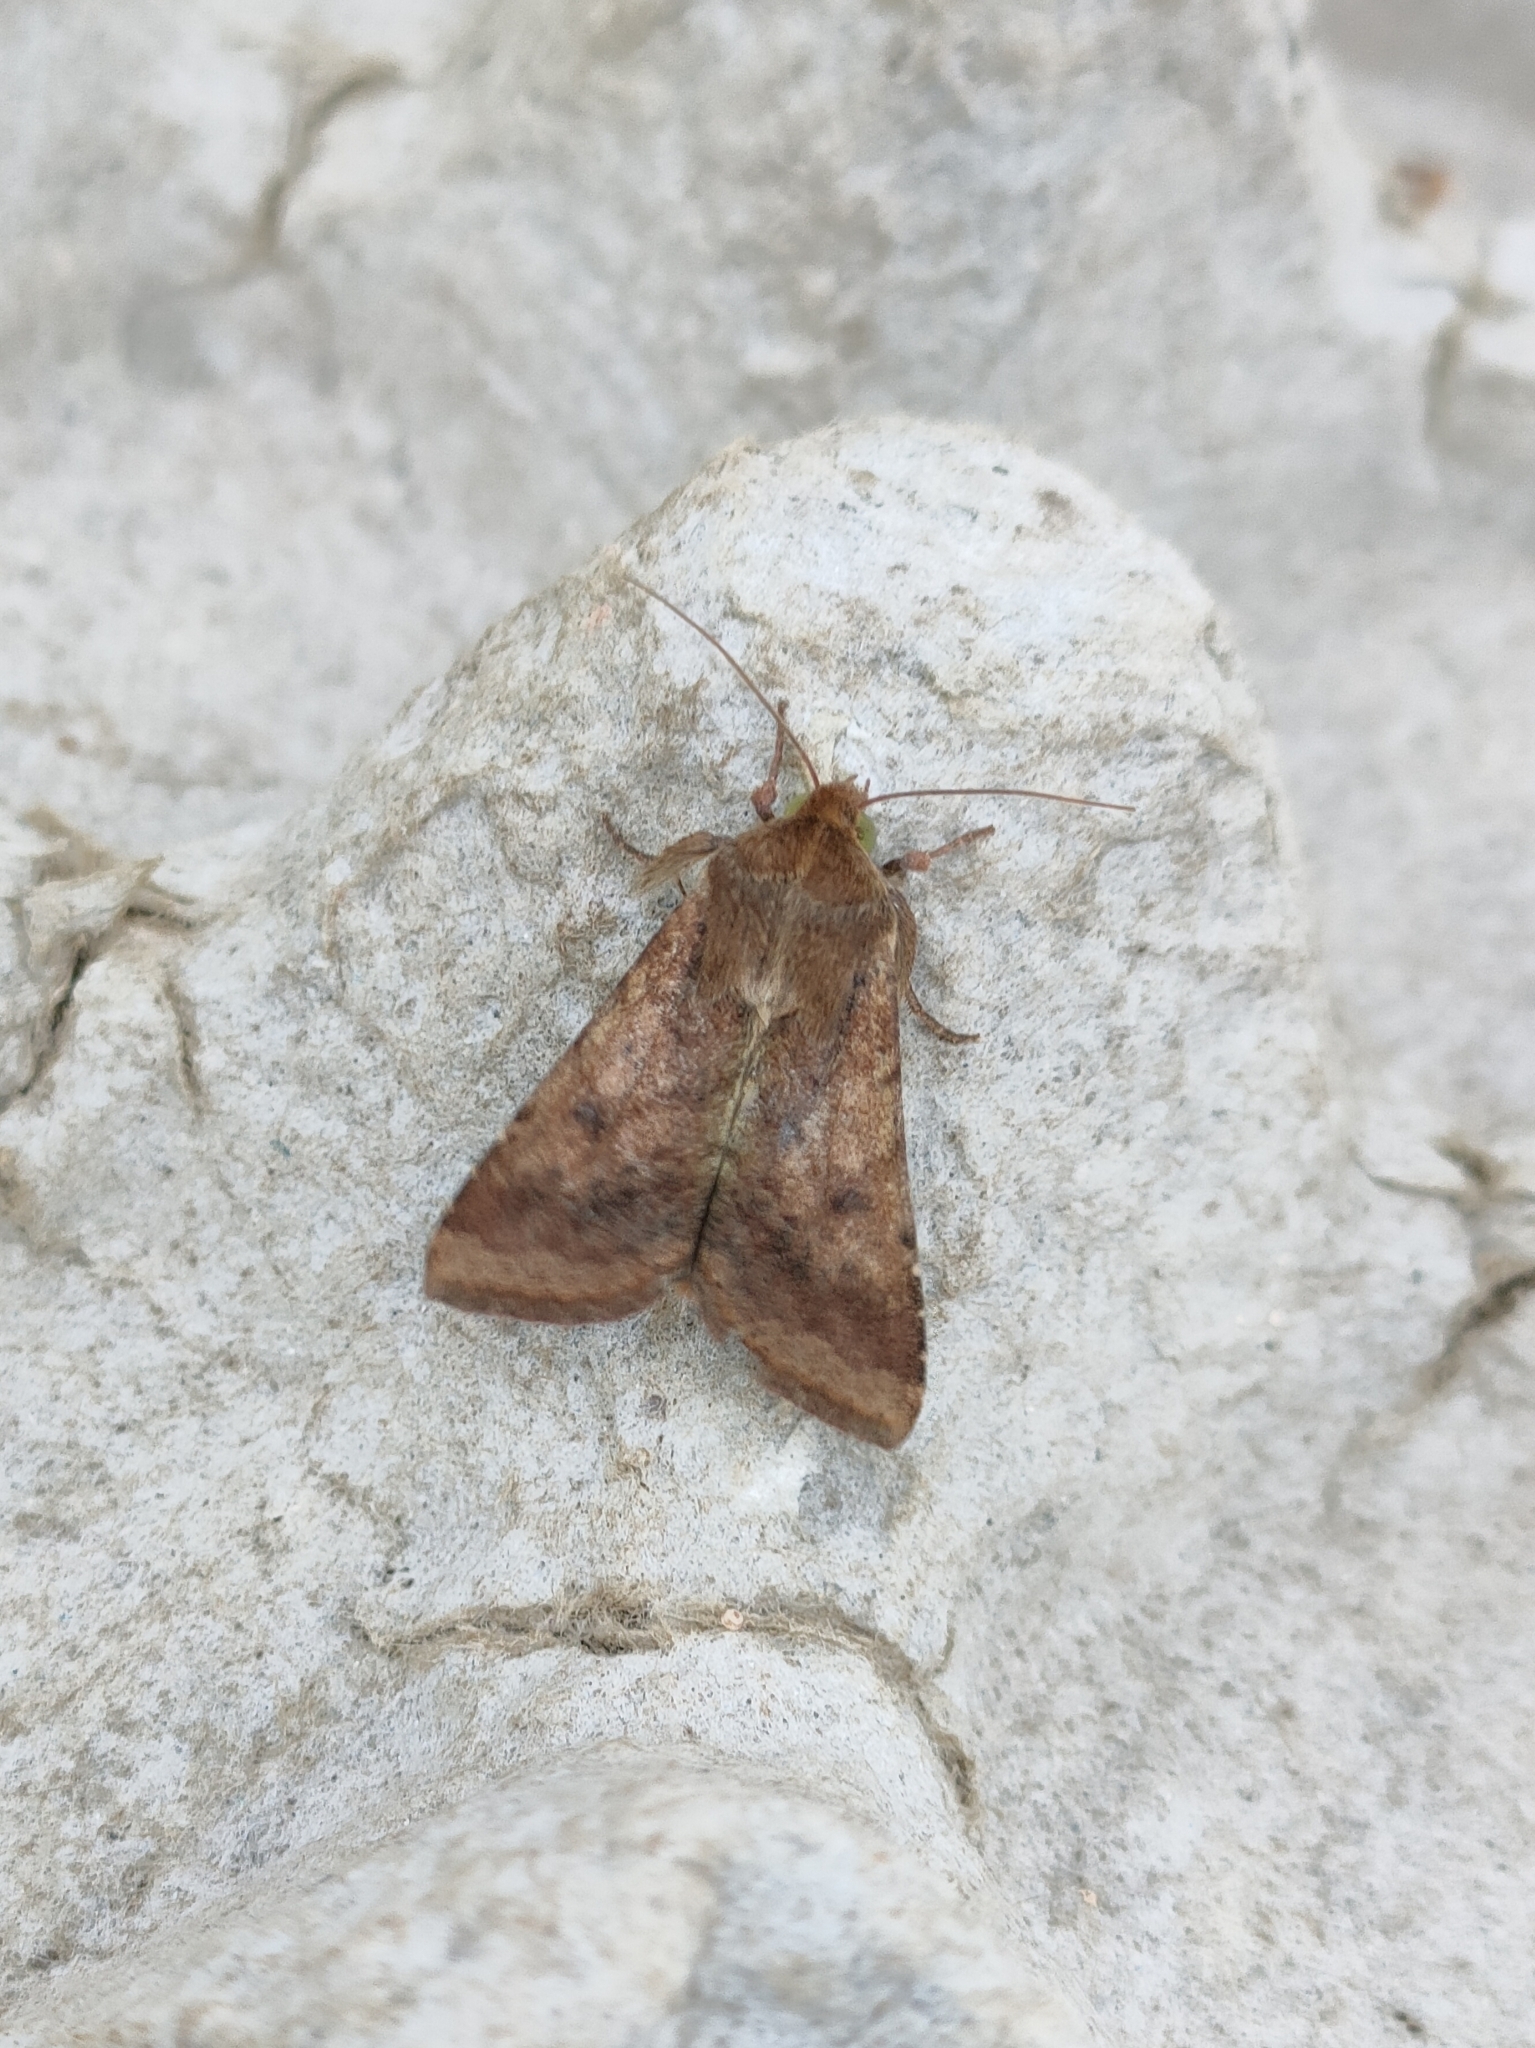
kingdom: Animalia
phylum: Arthropoda
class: Insecta
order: Lepidoptera
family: Noctuidae
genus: Helicoverpa
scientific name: Helicoverpa armigera
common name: Cotton bollworm
